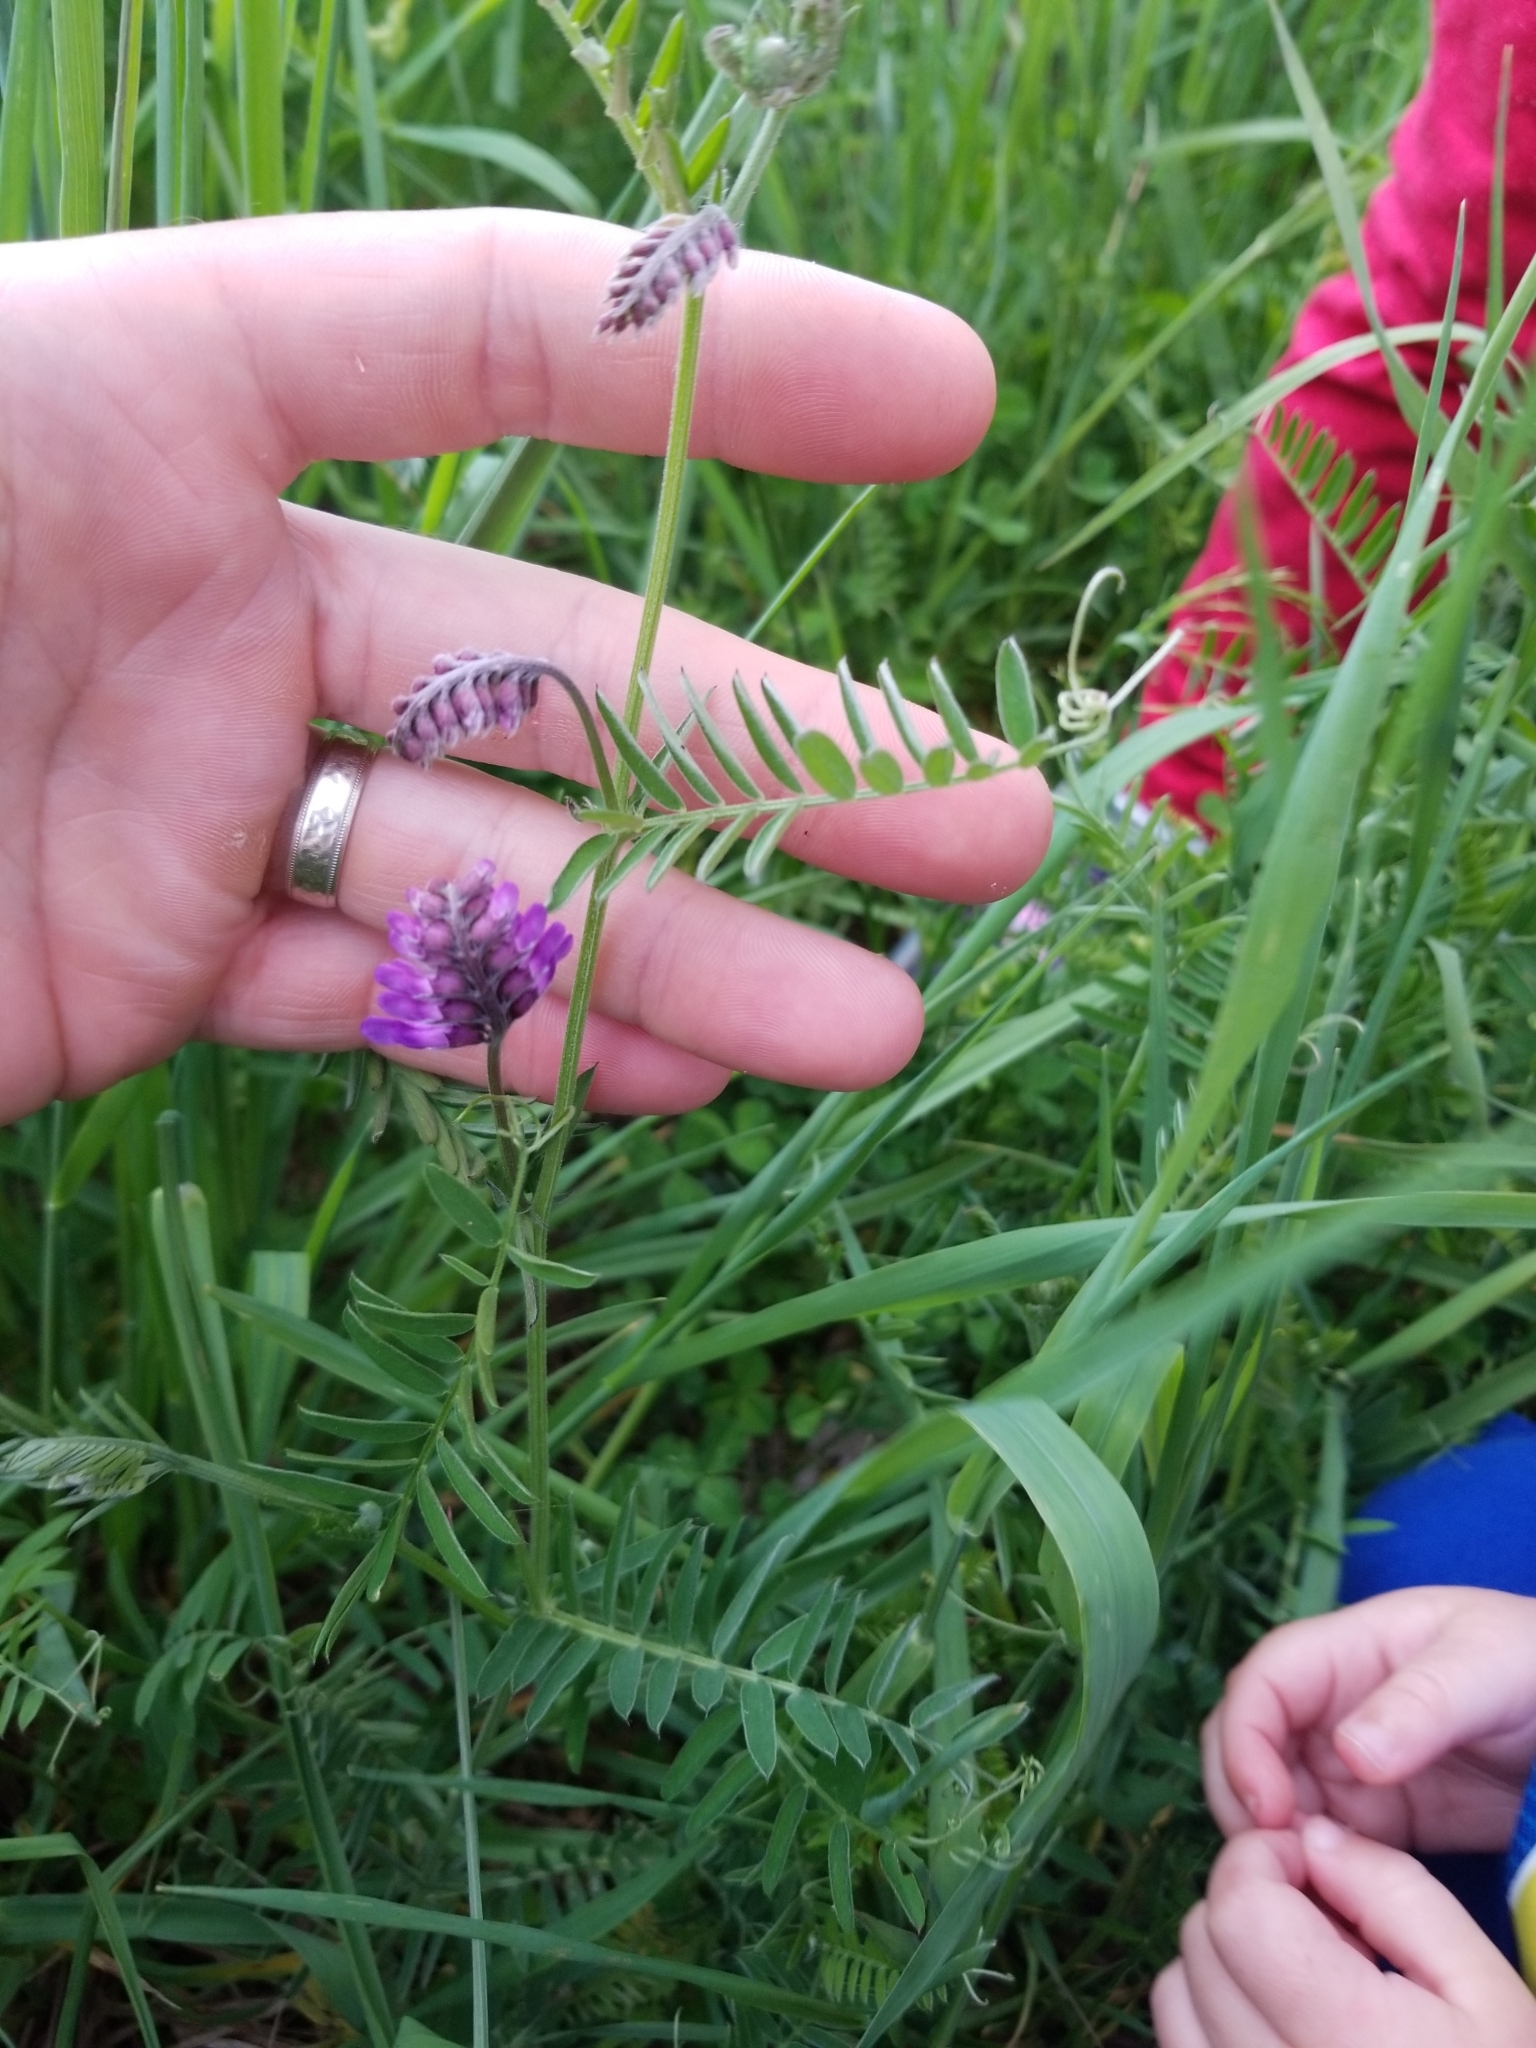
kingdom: Plantae
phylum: Tracheophyta
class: Magnoliopsida
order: Fabales
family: Fabaceae
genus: Vicia
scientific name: Vicia cracca
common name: Bird vetch
